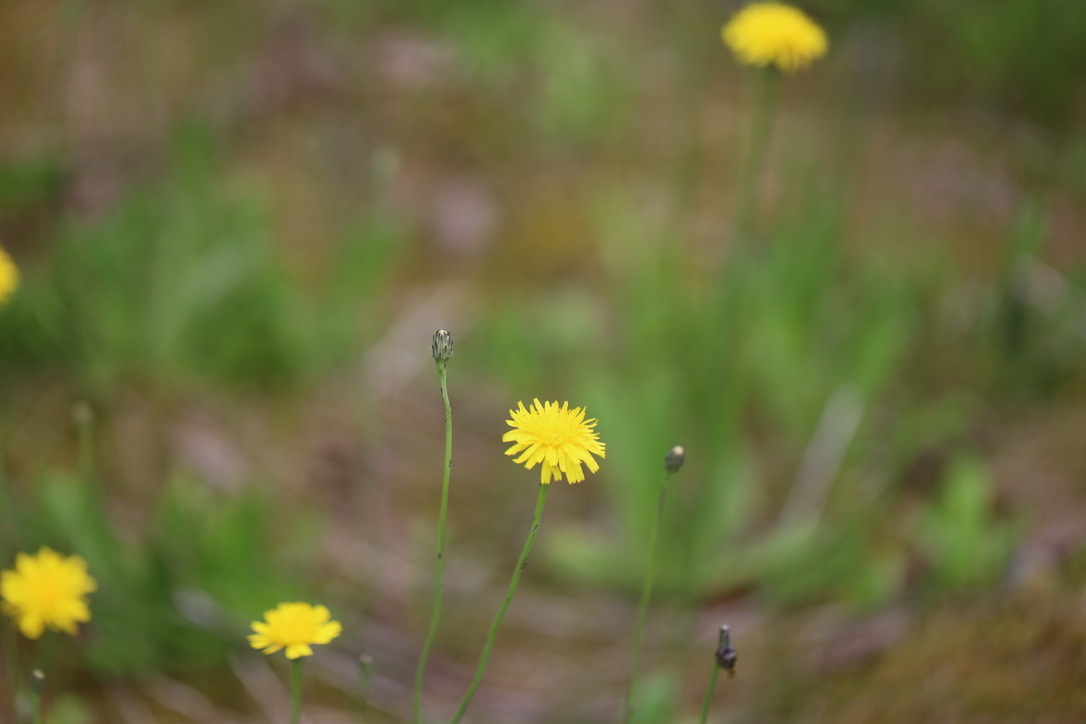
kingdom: Plantae
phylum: Tracheophyta
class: Magnoliopsida
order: Asterales
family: Asteraceae
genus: Hypochaeris
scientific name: Hypochaeris radicata
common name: Flatweed
